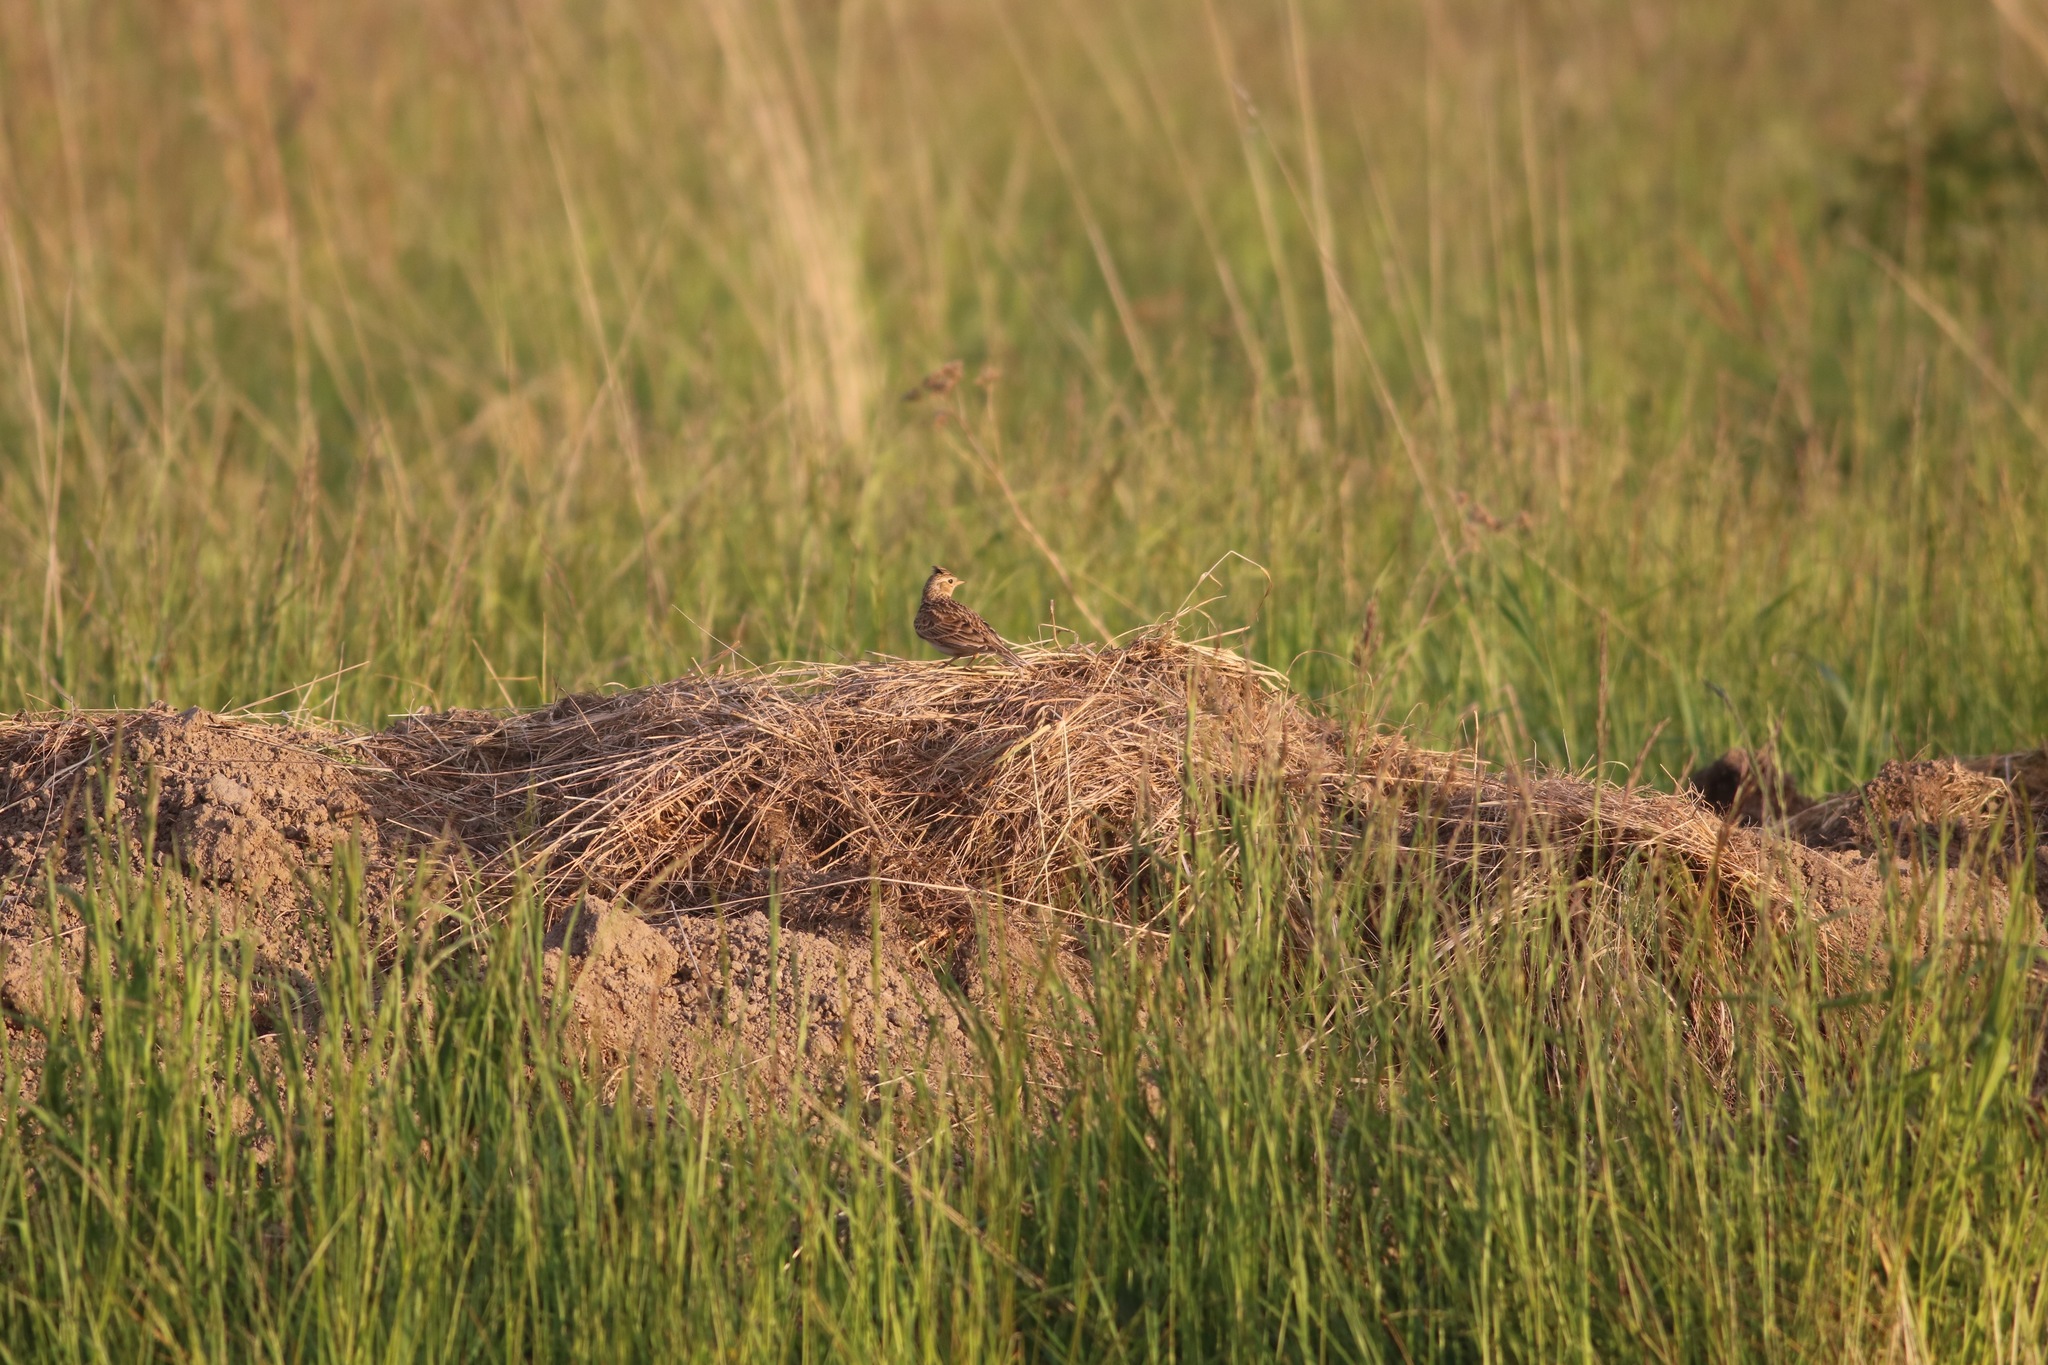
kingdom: Animalia
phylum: Chordata
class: Aves
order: Passeriformes
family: Alaudidae
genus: Alauda
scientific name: Alauda arvensis
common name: Eurasian skylark
